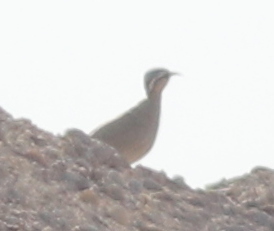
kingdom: Animalia
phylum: Chordata
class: Aves
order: Charadriiformes
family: Glareolidae
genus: Cursorius
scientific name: Cursorius cursor
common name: Cream-colored courser
